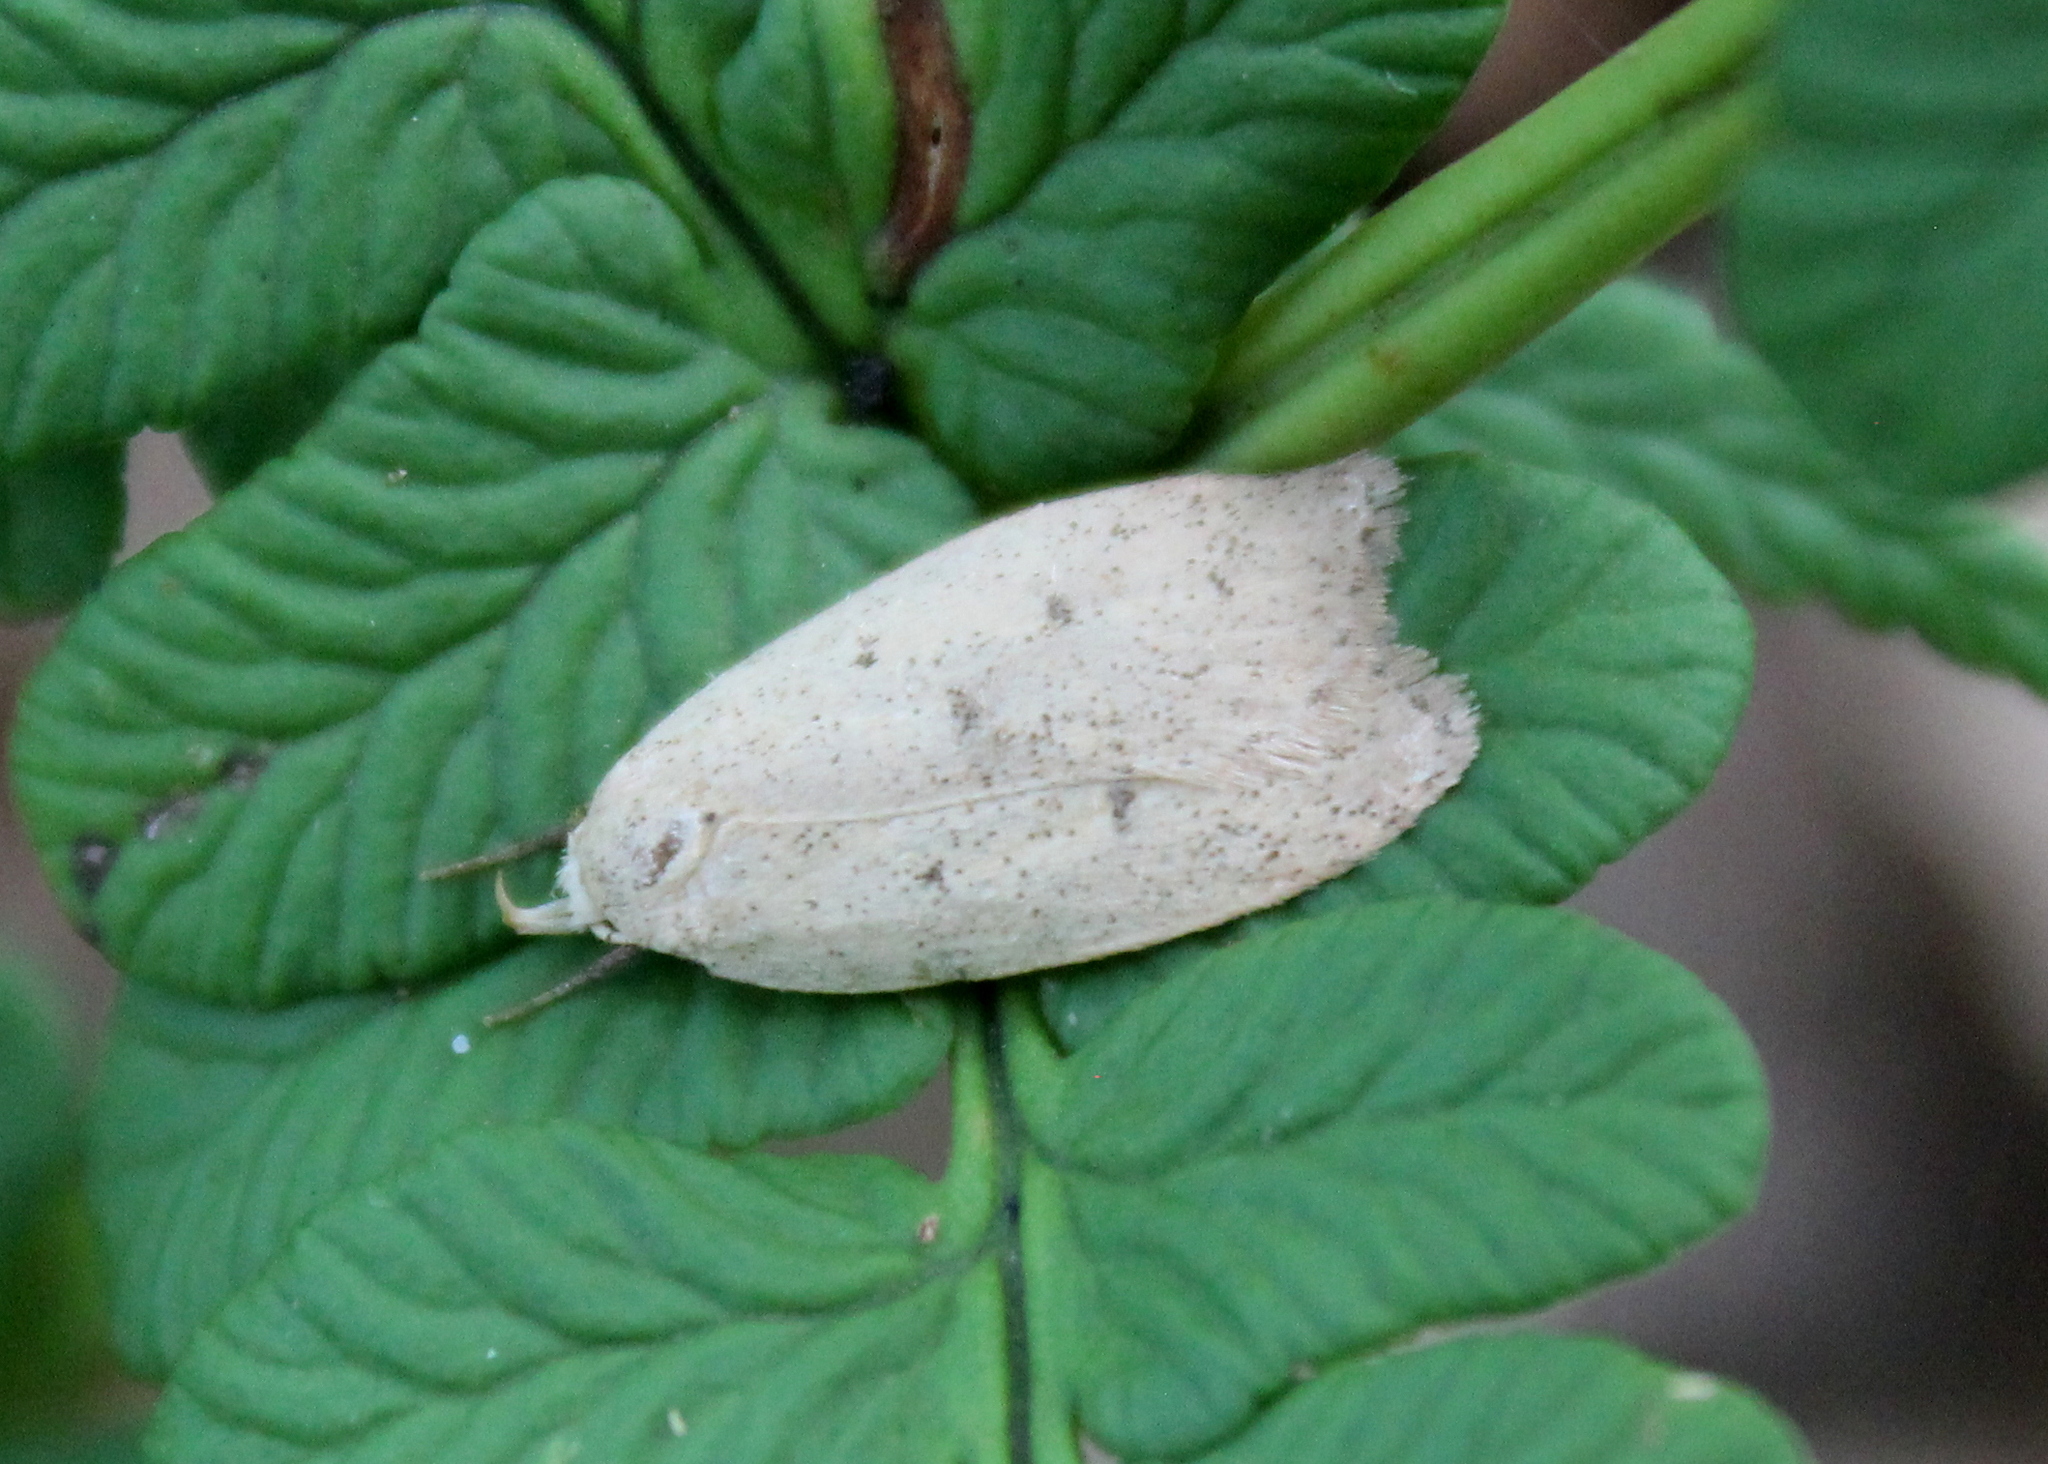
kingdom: Animalia
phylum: Arthropoda
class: Insecta
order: Lepidoptera
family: Peleopodidae
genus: Machimia
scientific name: Machimia tentoriferella
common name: Gold-striped leaftier moth
